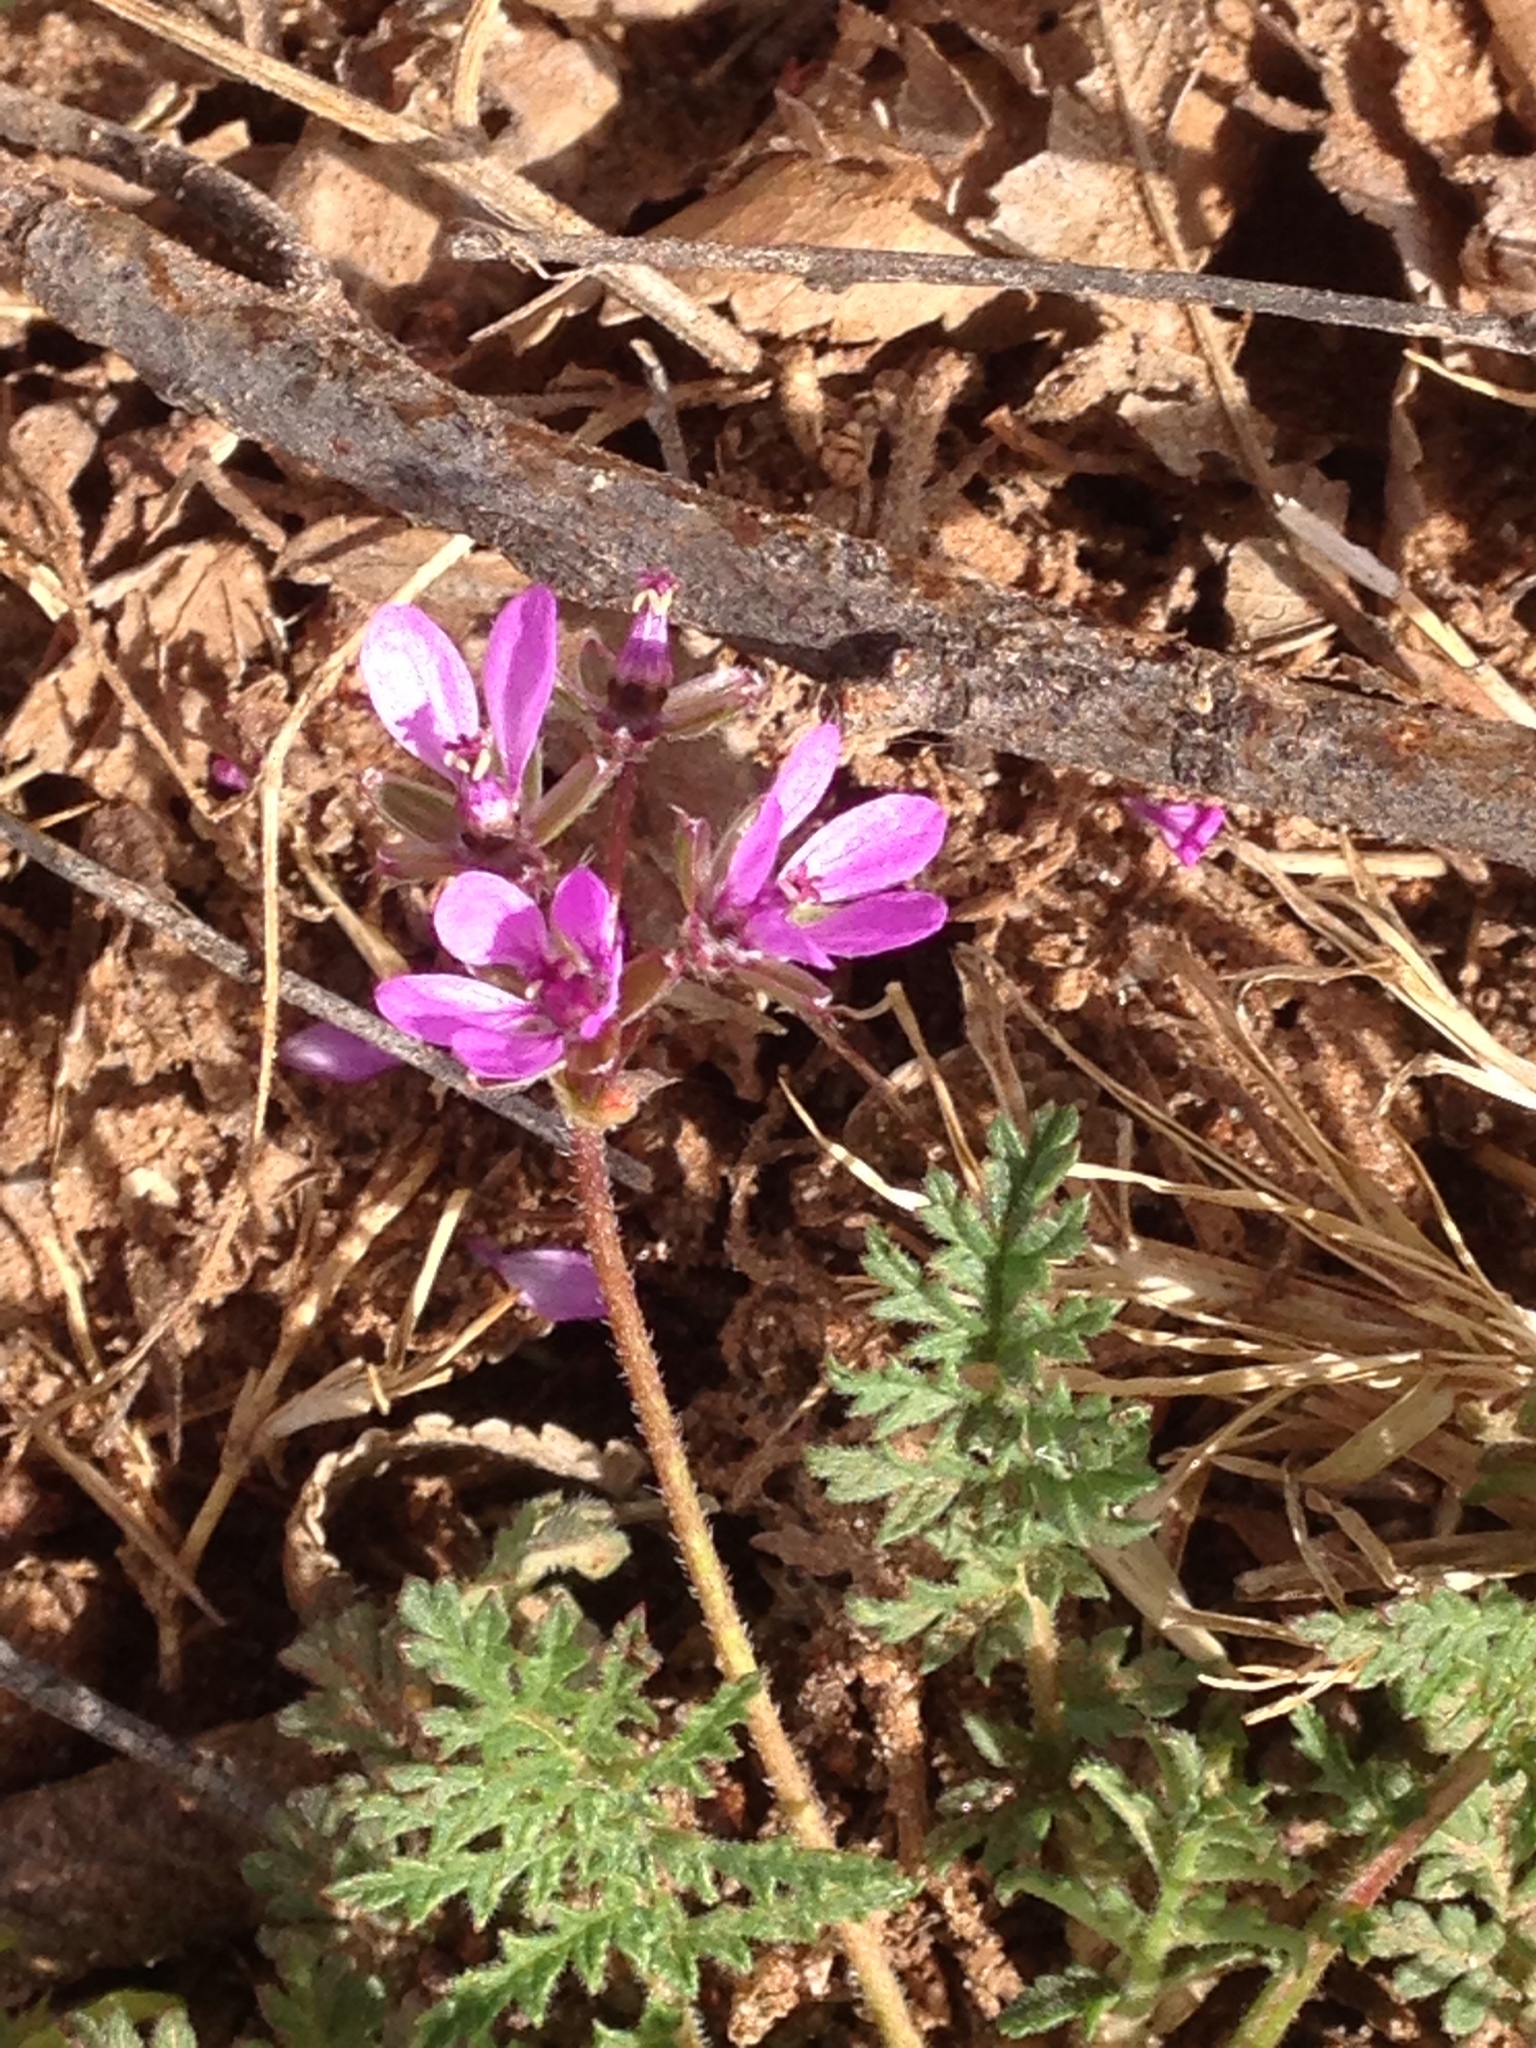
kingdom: Plantae
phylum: Tracheophyta
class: Magnoliopsida
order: Geraniales
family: Geraniaceae
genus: Erodium
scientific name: Erodium cicutarium
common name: Common stork's-bill
